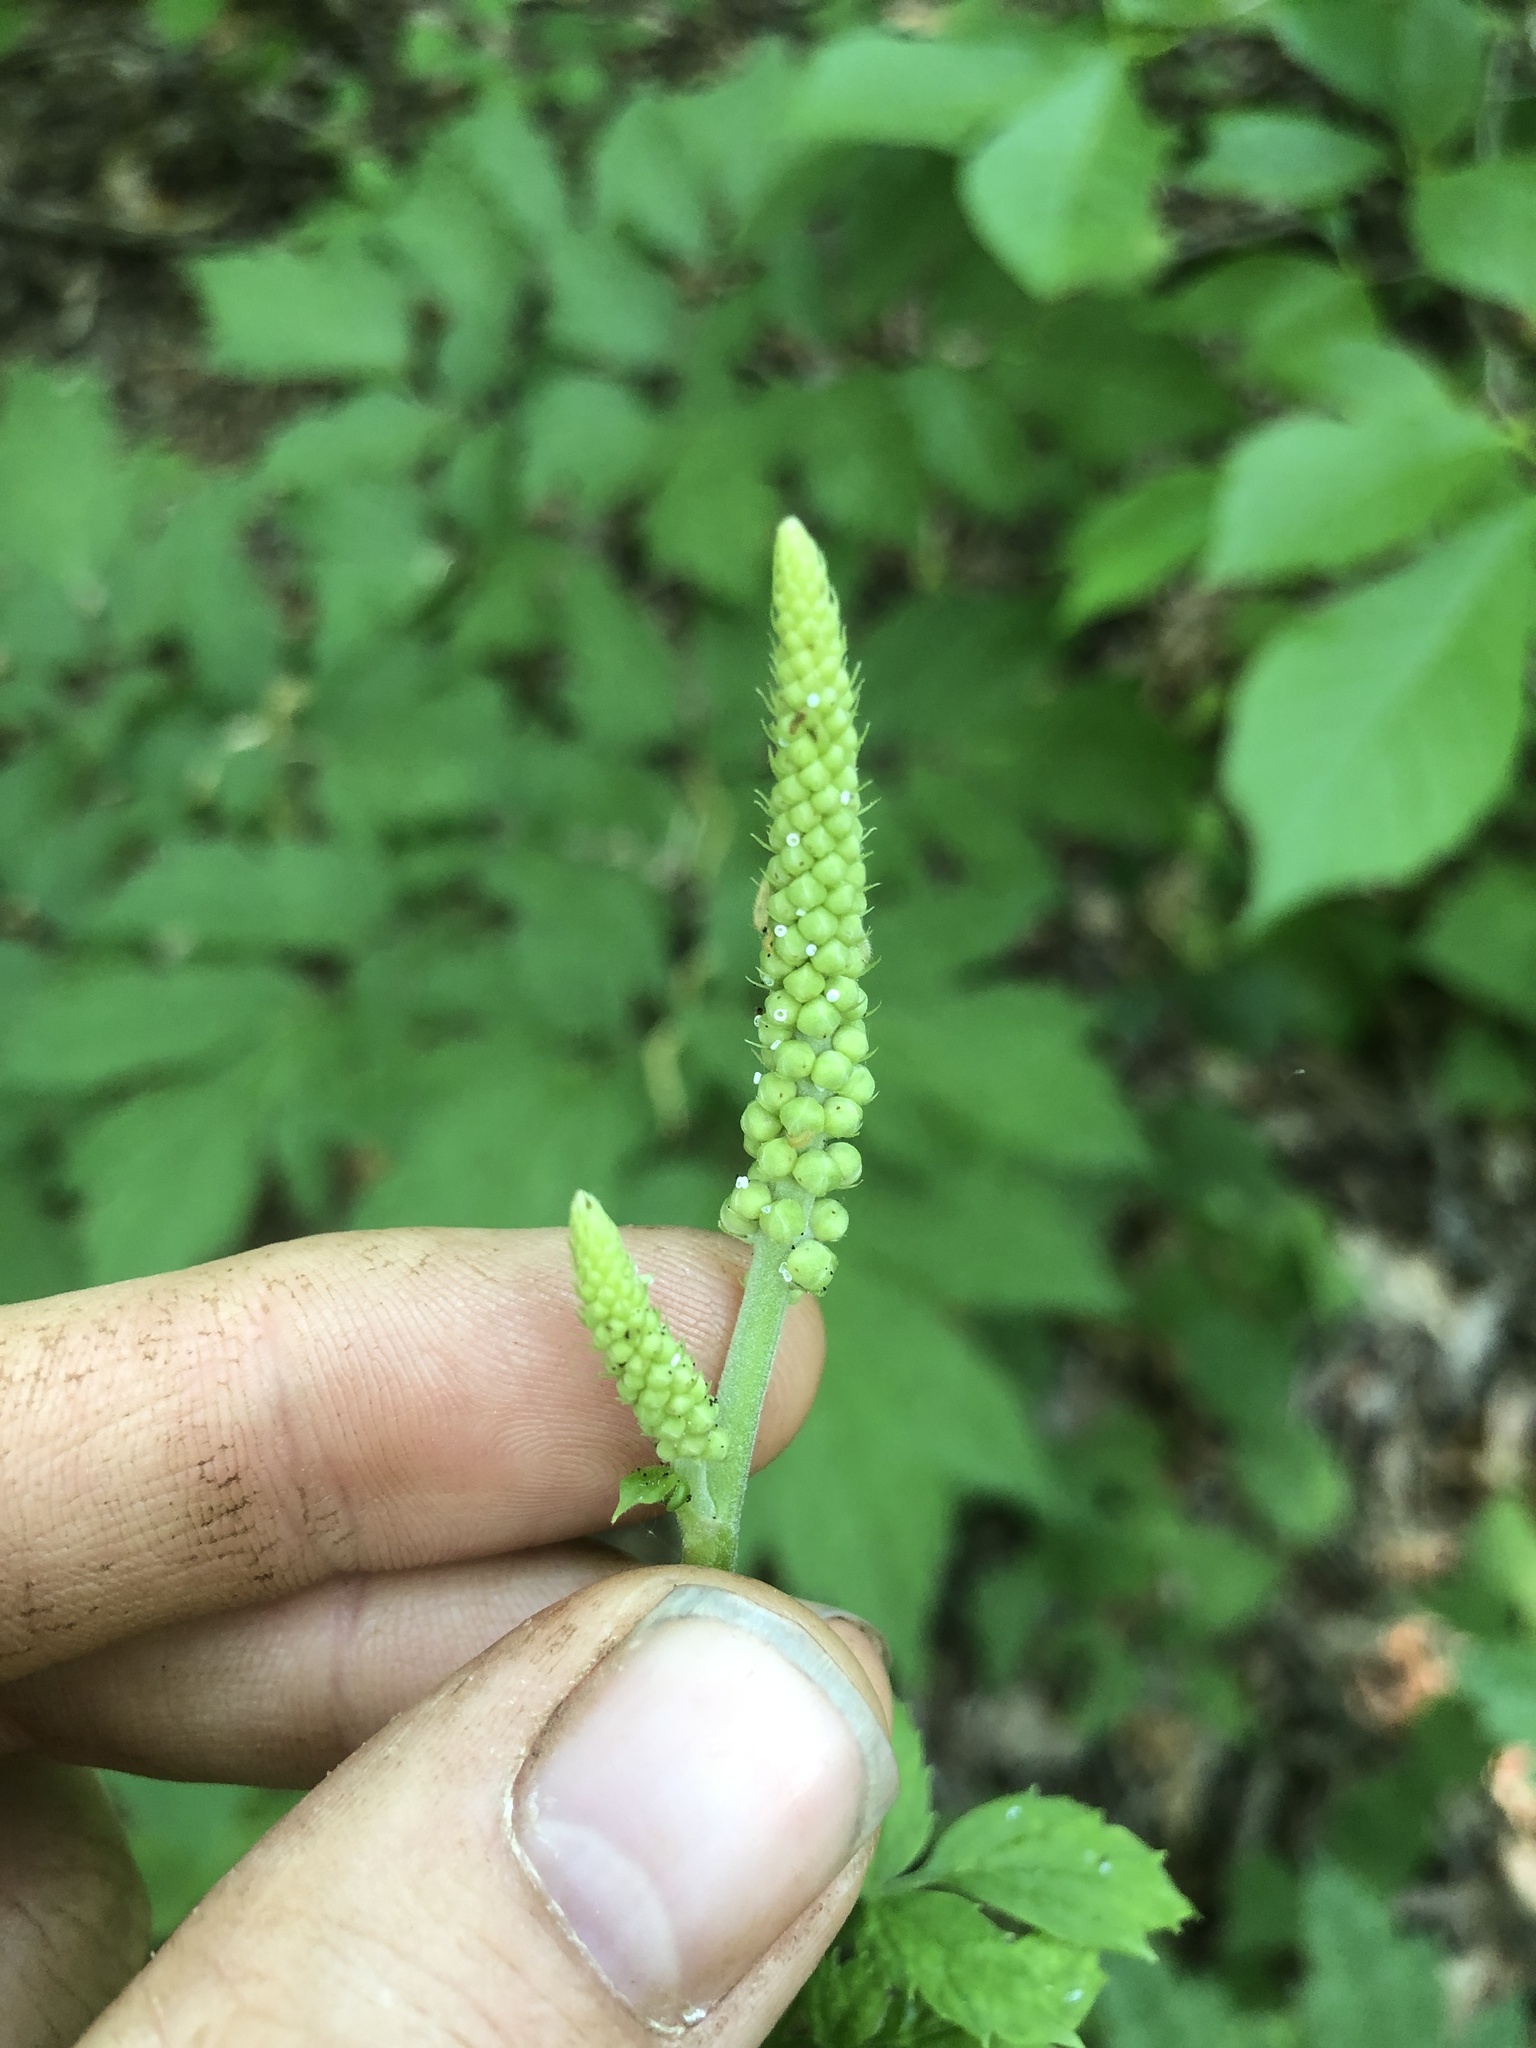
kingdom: Plantae
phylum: Tracheophyta
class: Magnoliopsida
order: Ranunculales
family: Ranunculaceae
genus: Actaea
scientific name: Actaea racemosa
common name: Black cohosh
